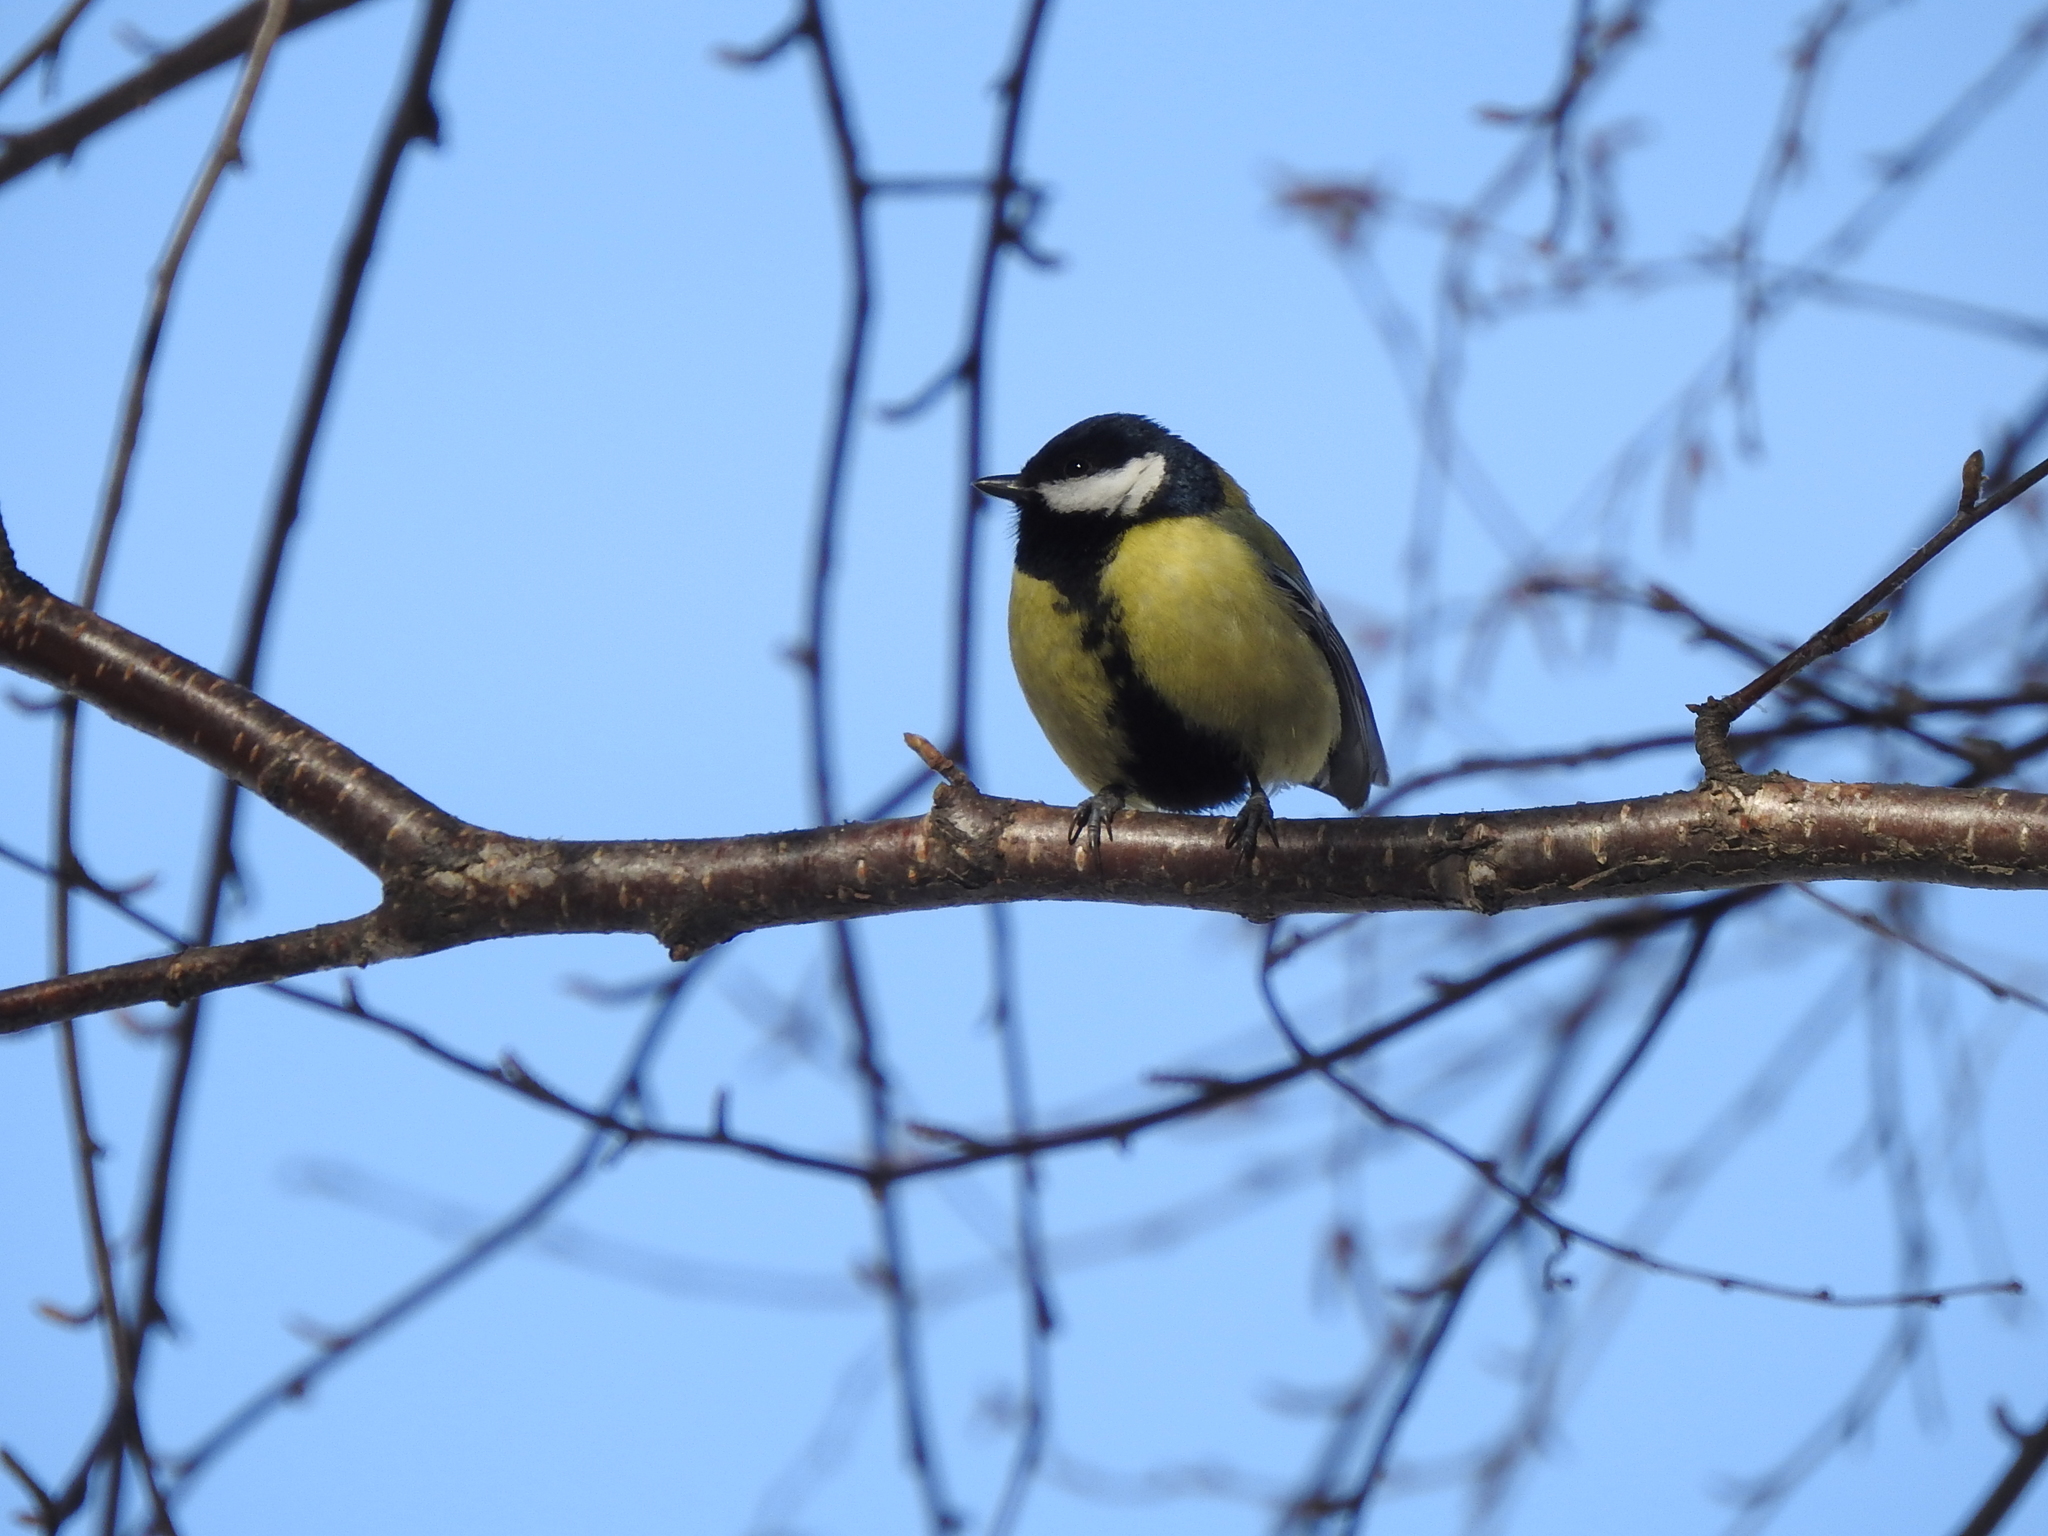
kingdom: Animalia
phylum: Chordata
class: Aves
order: Passeriformes
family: Paridae
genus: Parus
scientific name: Parus major
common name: Great tit
